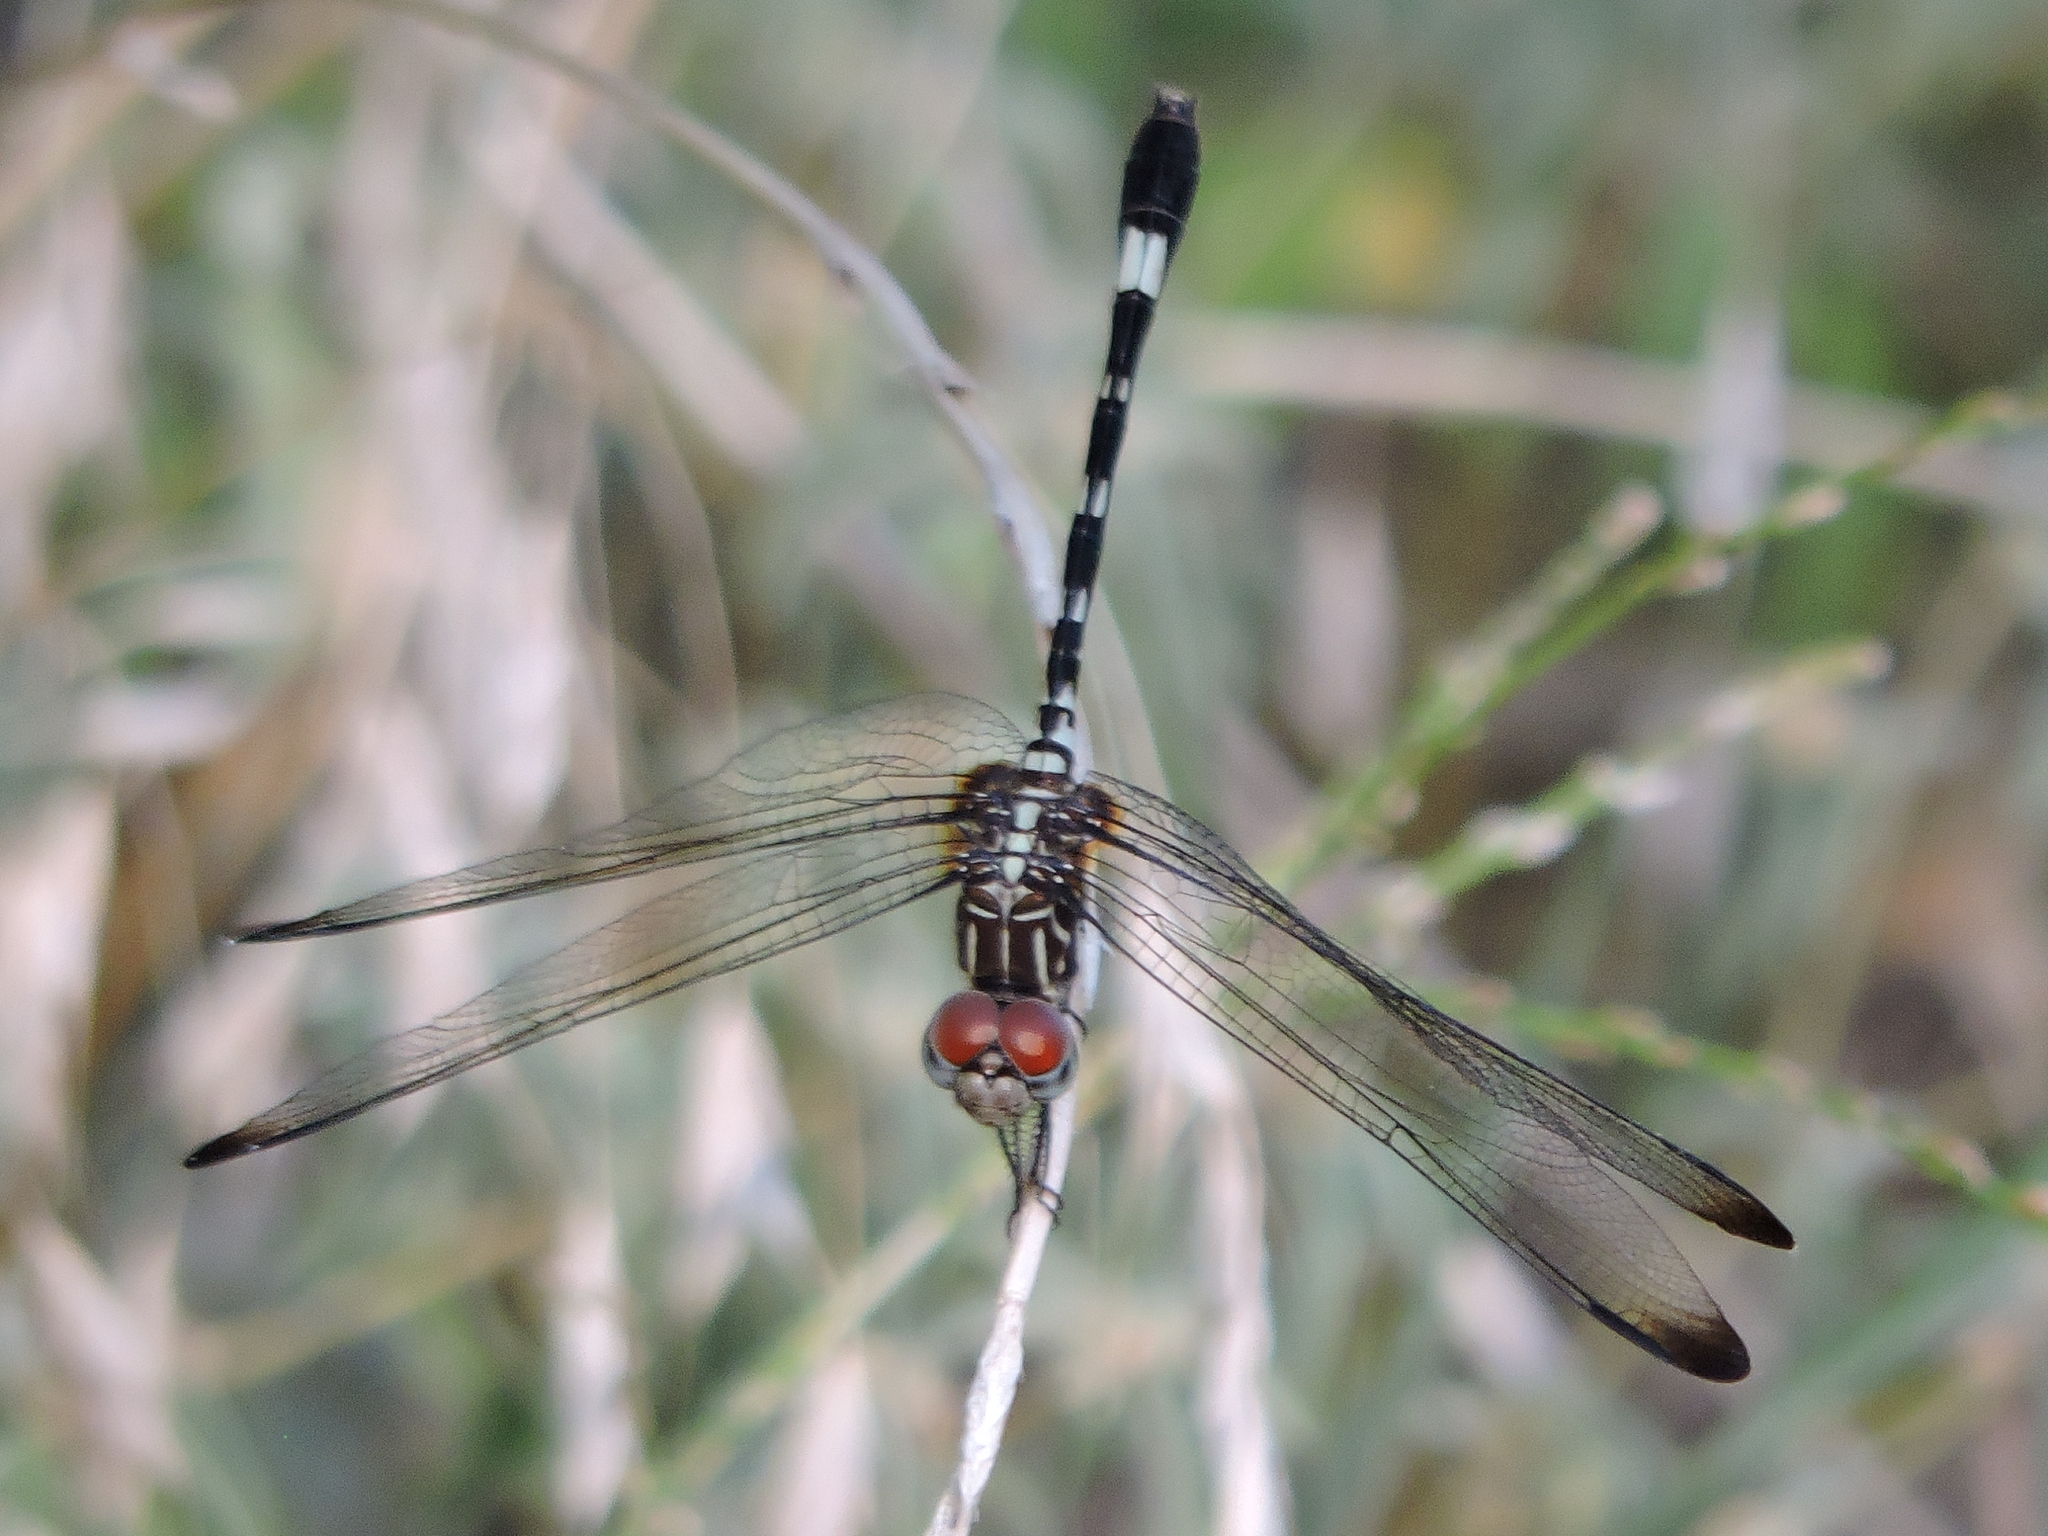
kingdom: Animalia
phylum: Arthropoda
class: Insecta
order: Odonata
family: Libellulidae
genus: Dythemis
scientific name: Dythemis velox
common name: Swift setwing
